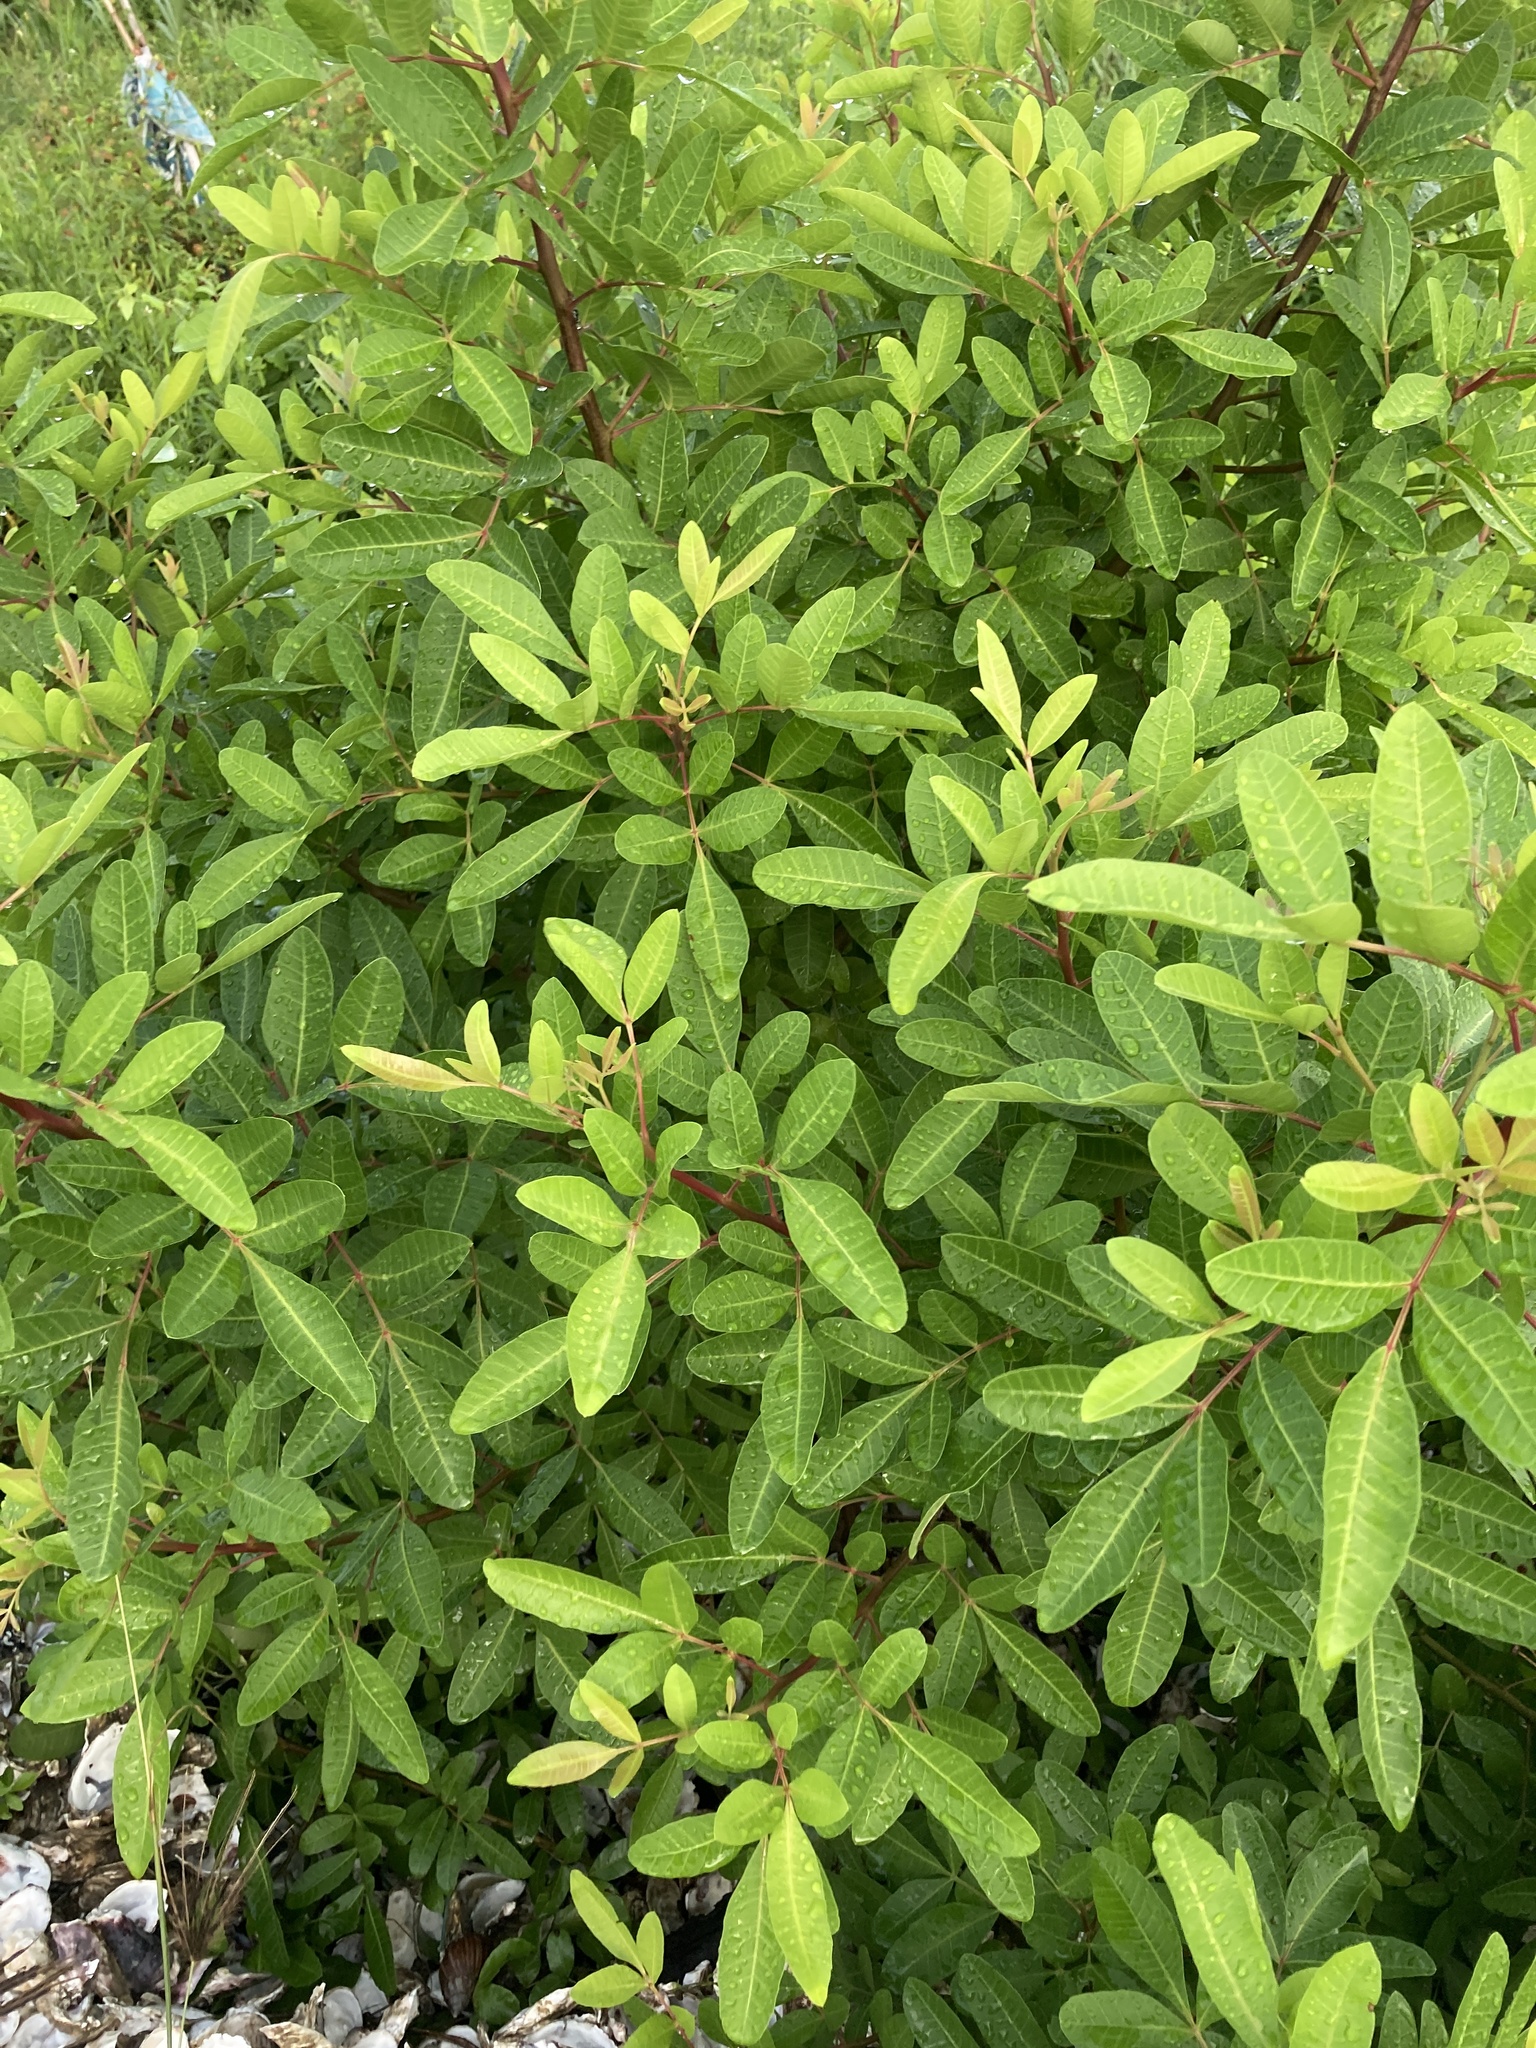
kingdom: Plantae
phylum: Tracheophyta
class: Magnoliopsida
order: Sapindales
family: Anacardiaceae
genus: Schinus
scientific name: Schinus terebinthifolia
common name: Brazilian peppertree
